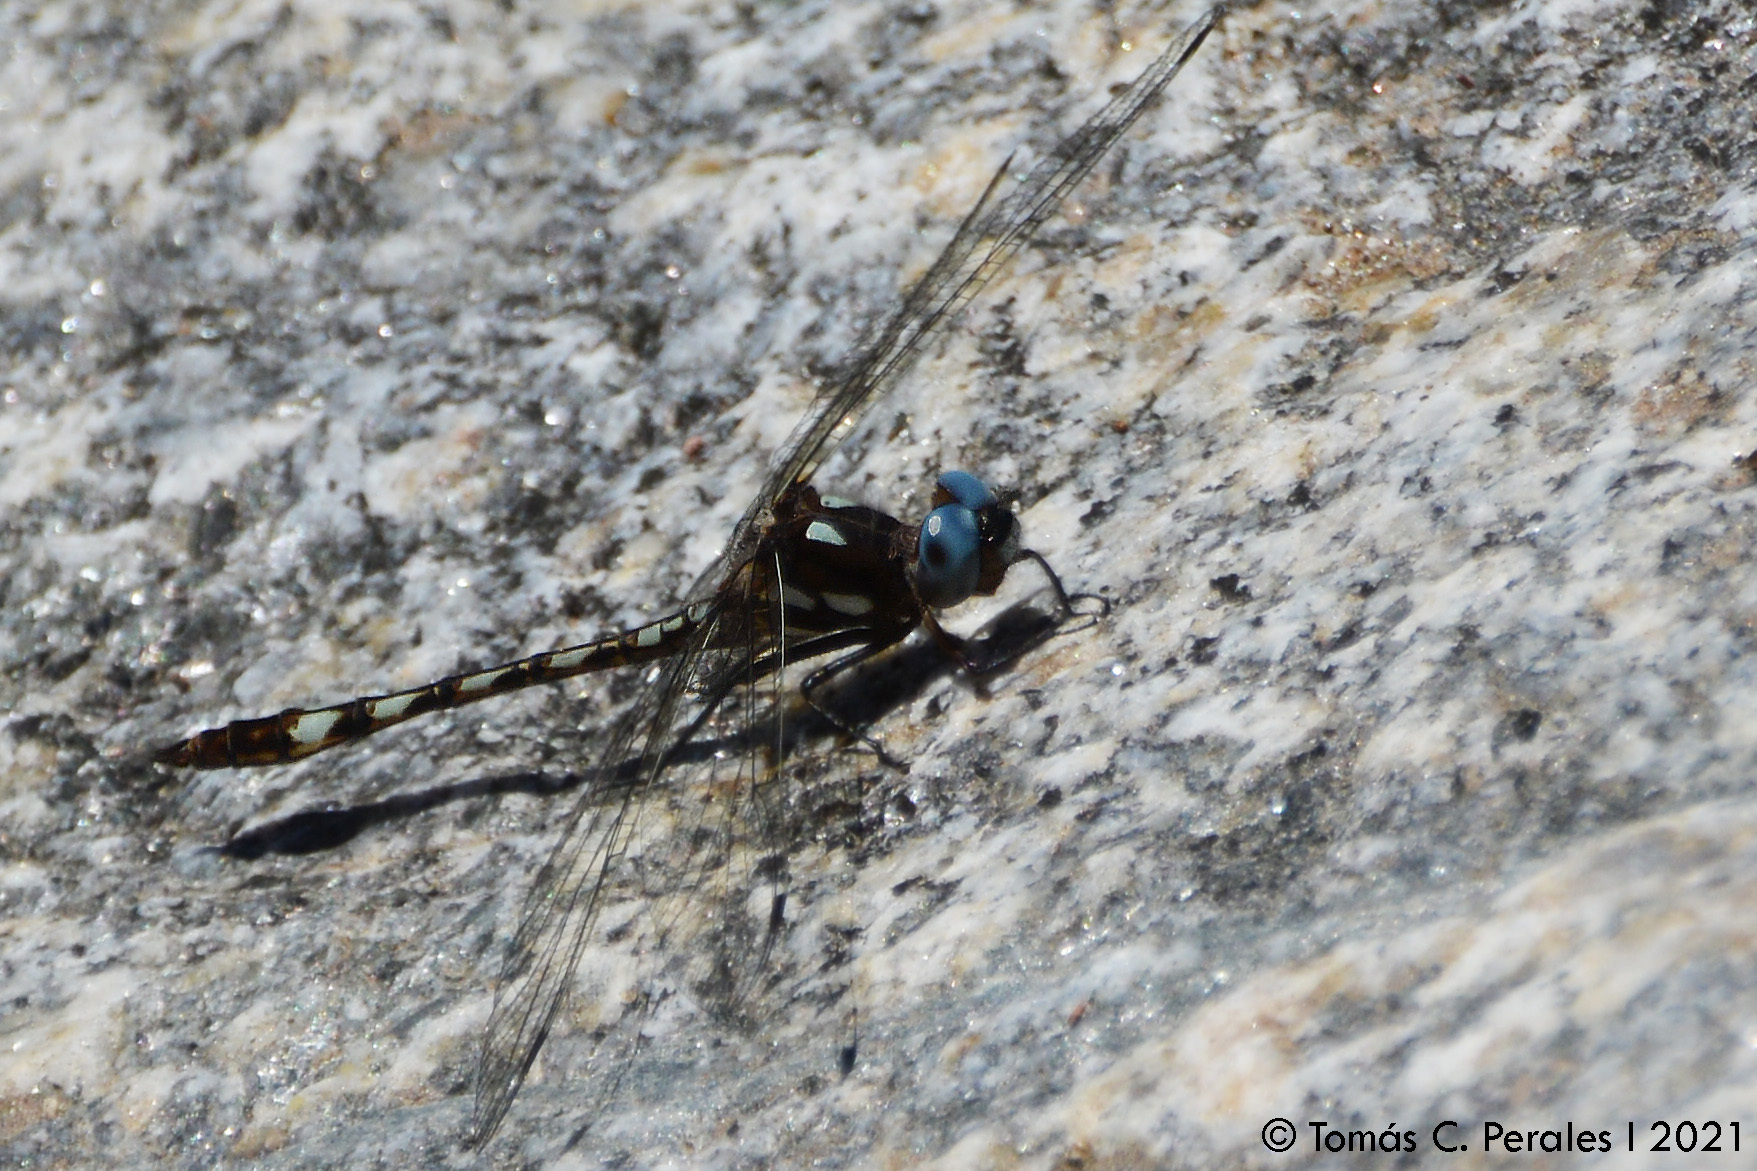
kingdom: Animalia
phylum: Arthropoda
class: Insecta
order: Odonata
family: Libellulidae
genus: Macrothemis
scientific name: Macrothemis imitans
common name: Ivory-striped sylph
